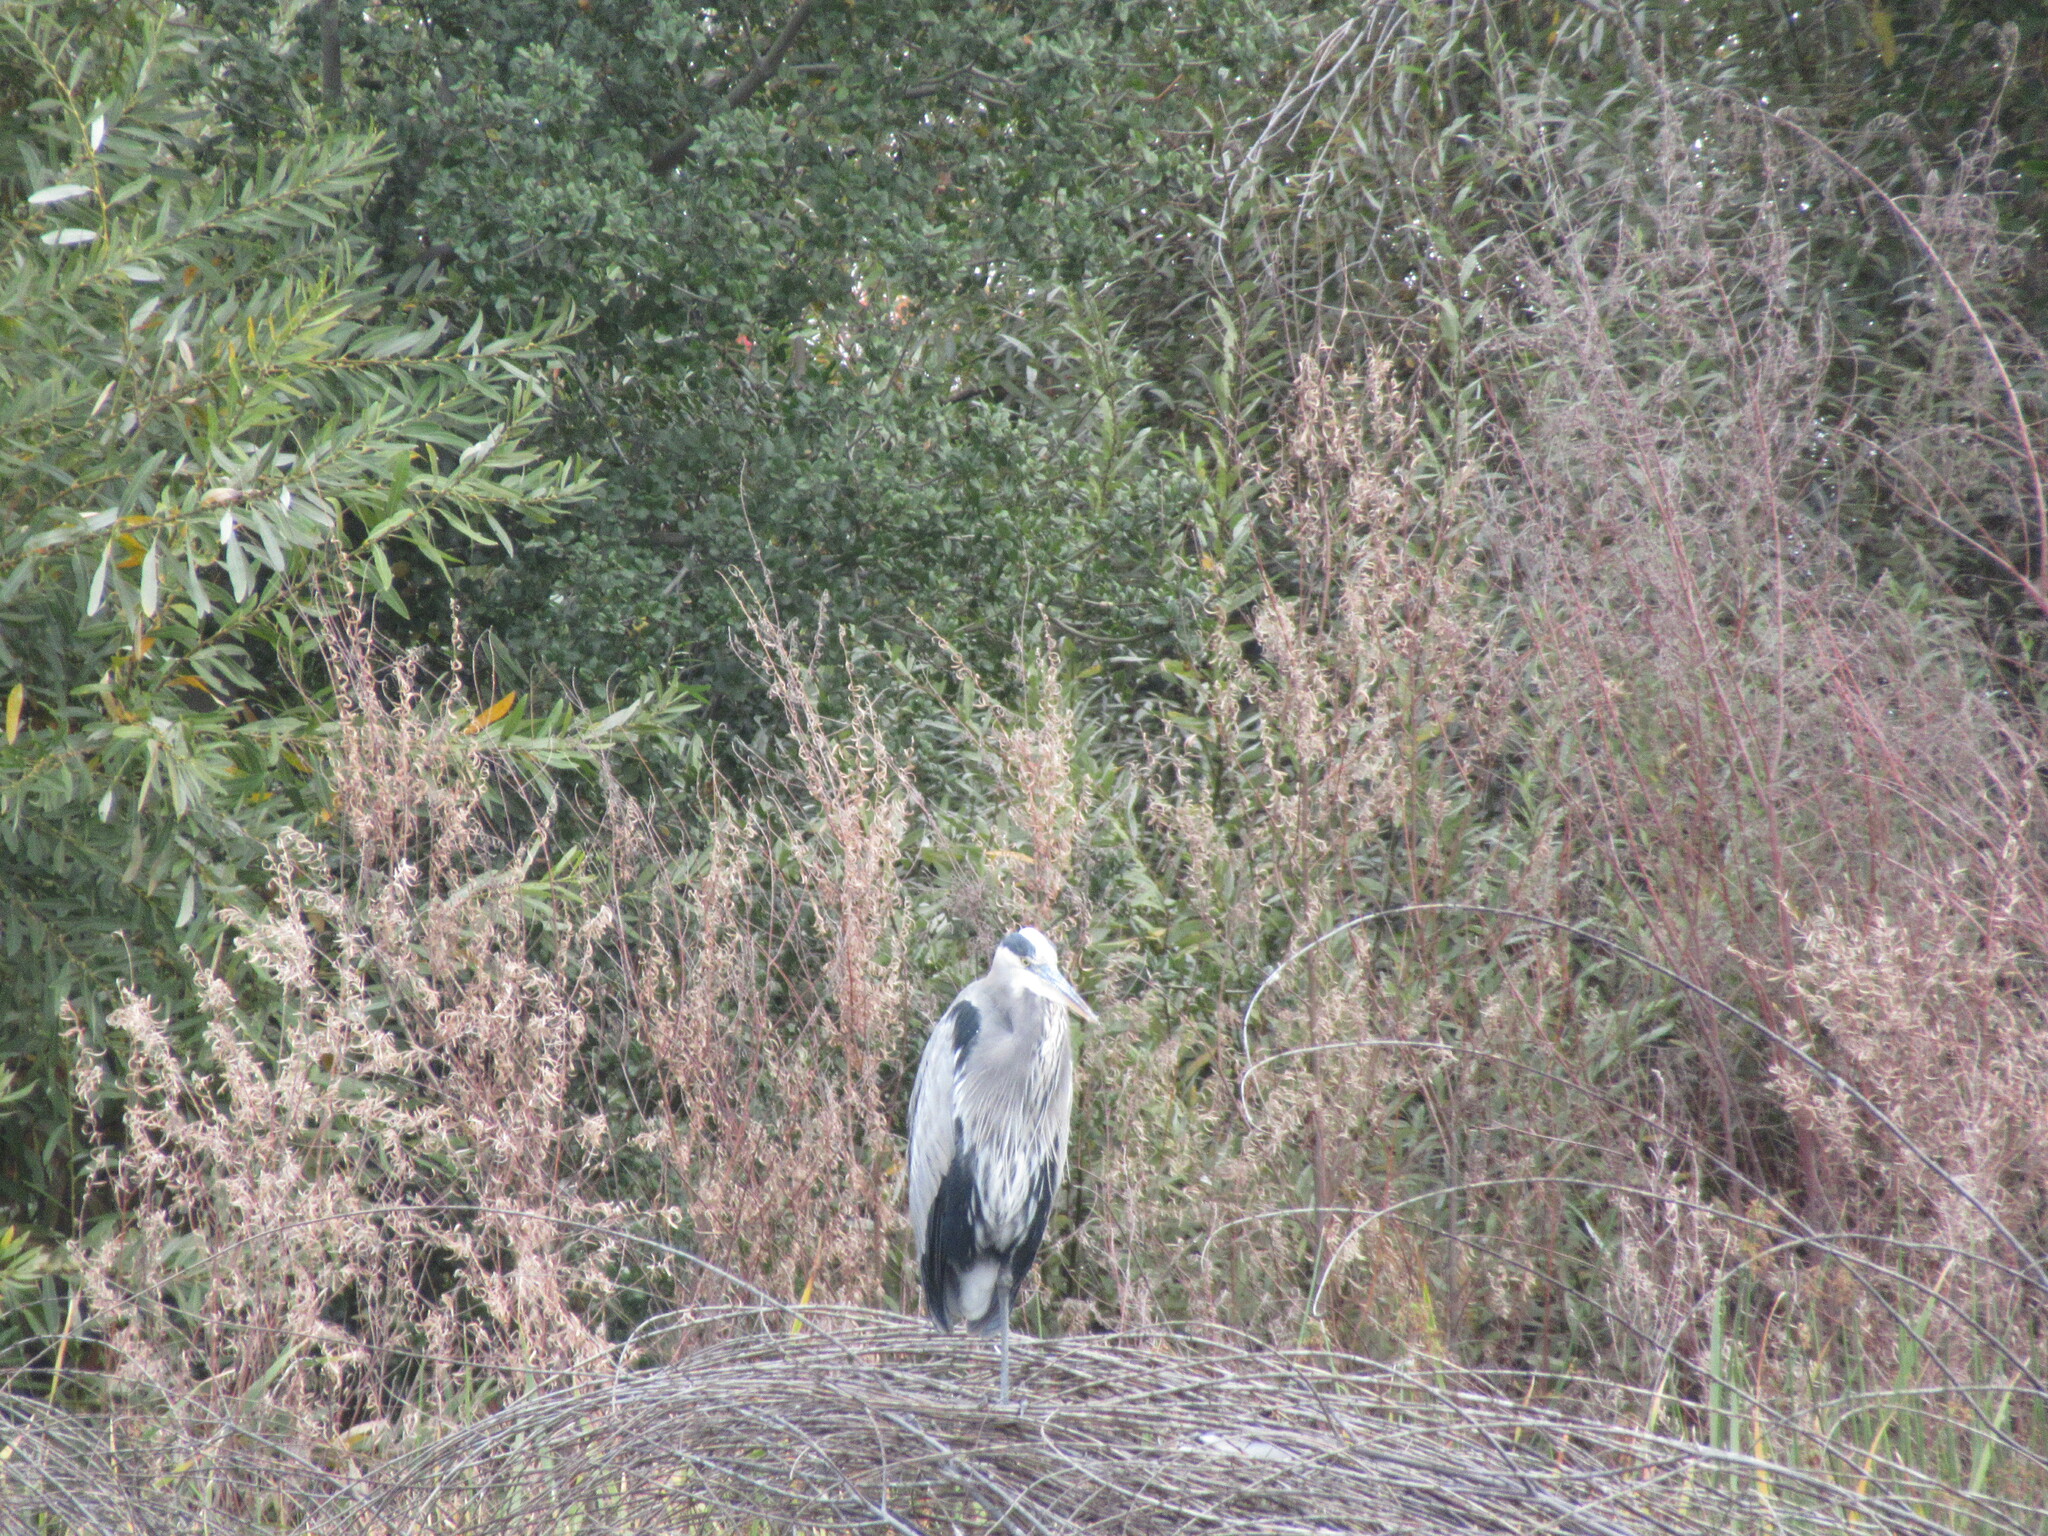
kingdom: Animalia
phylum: Chordata
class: Aves
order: Pelecaniformes
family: Ardeidae
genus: Ardea
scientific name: Ardea herodias
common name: Great blue heron
